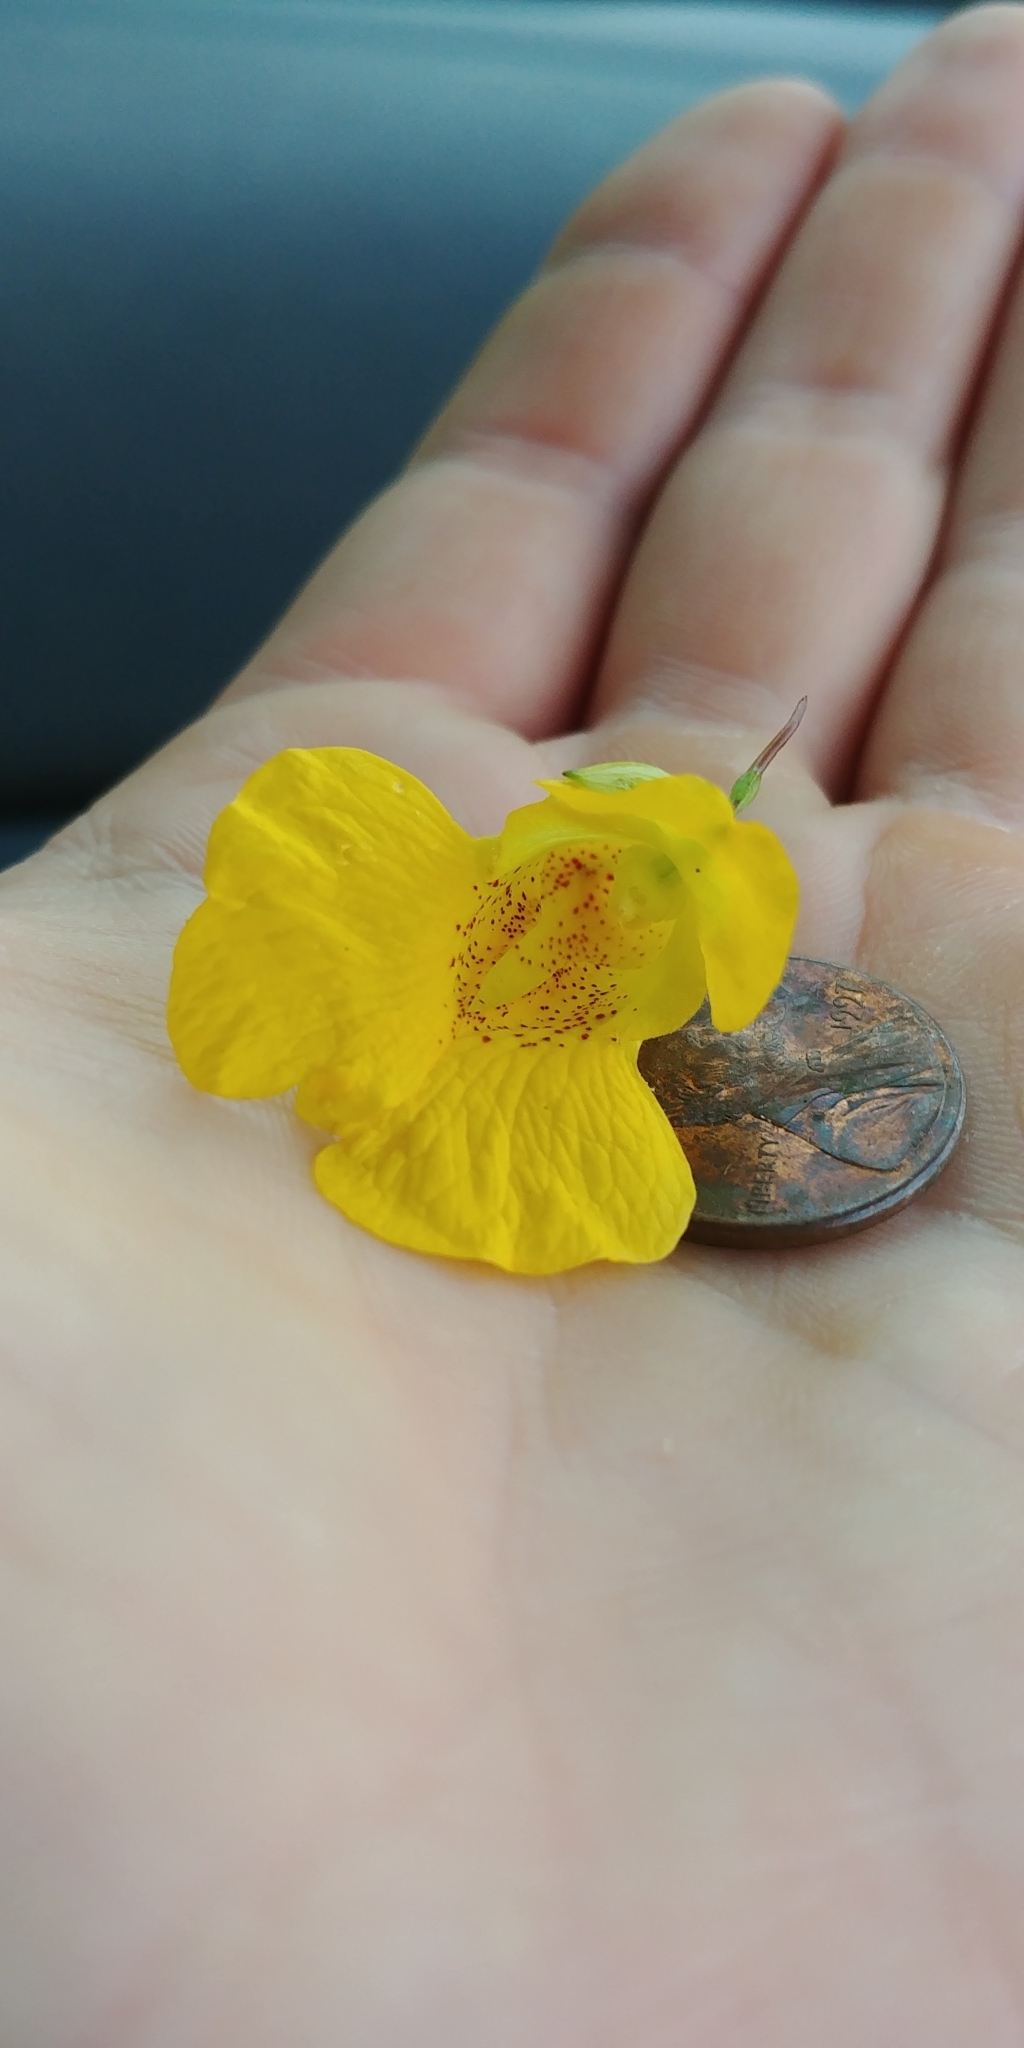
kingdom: Plantae
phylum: Tracheophyta
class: Magnoliopsida
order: Ericales
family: Balsaminaceae
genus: Impatiens
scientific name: Impatiens pallida
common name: Pale snapweed
